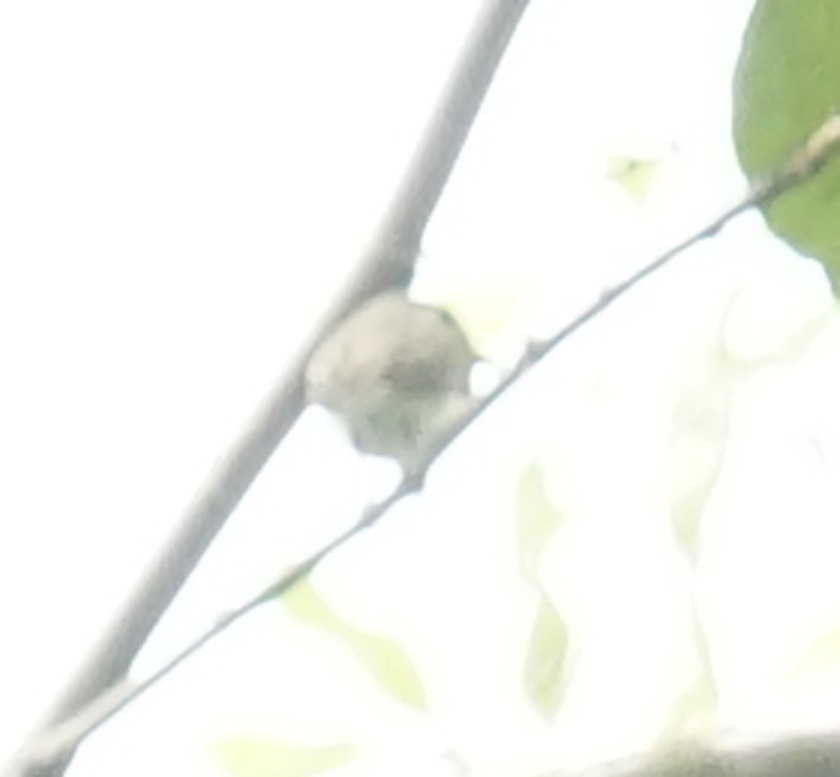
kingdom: Animalia
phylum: Chordata
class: Aves
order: Passeriformes
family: Muscicapidae
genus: Muscicapa
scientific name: Muscicapa latirostris
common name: Asian brown flycatcher
